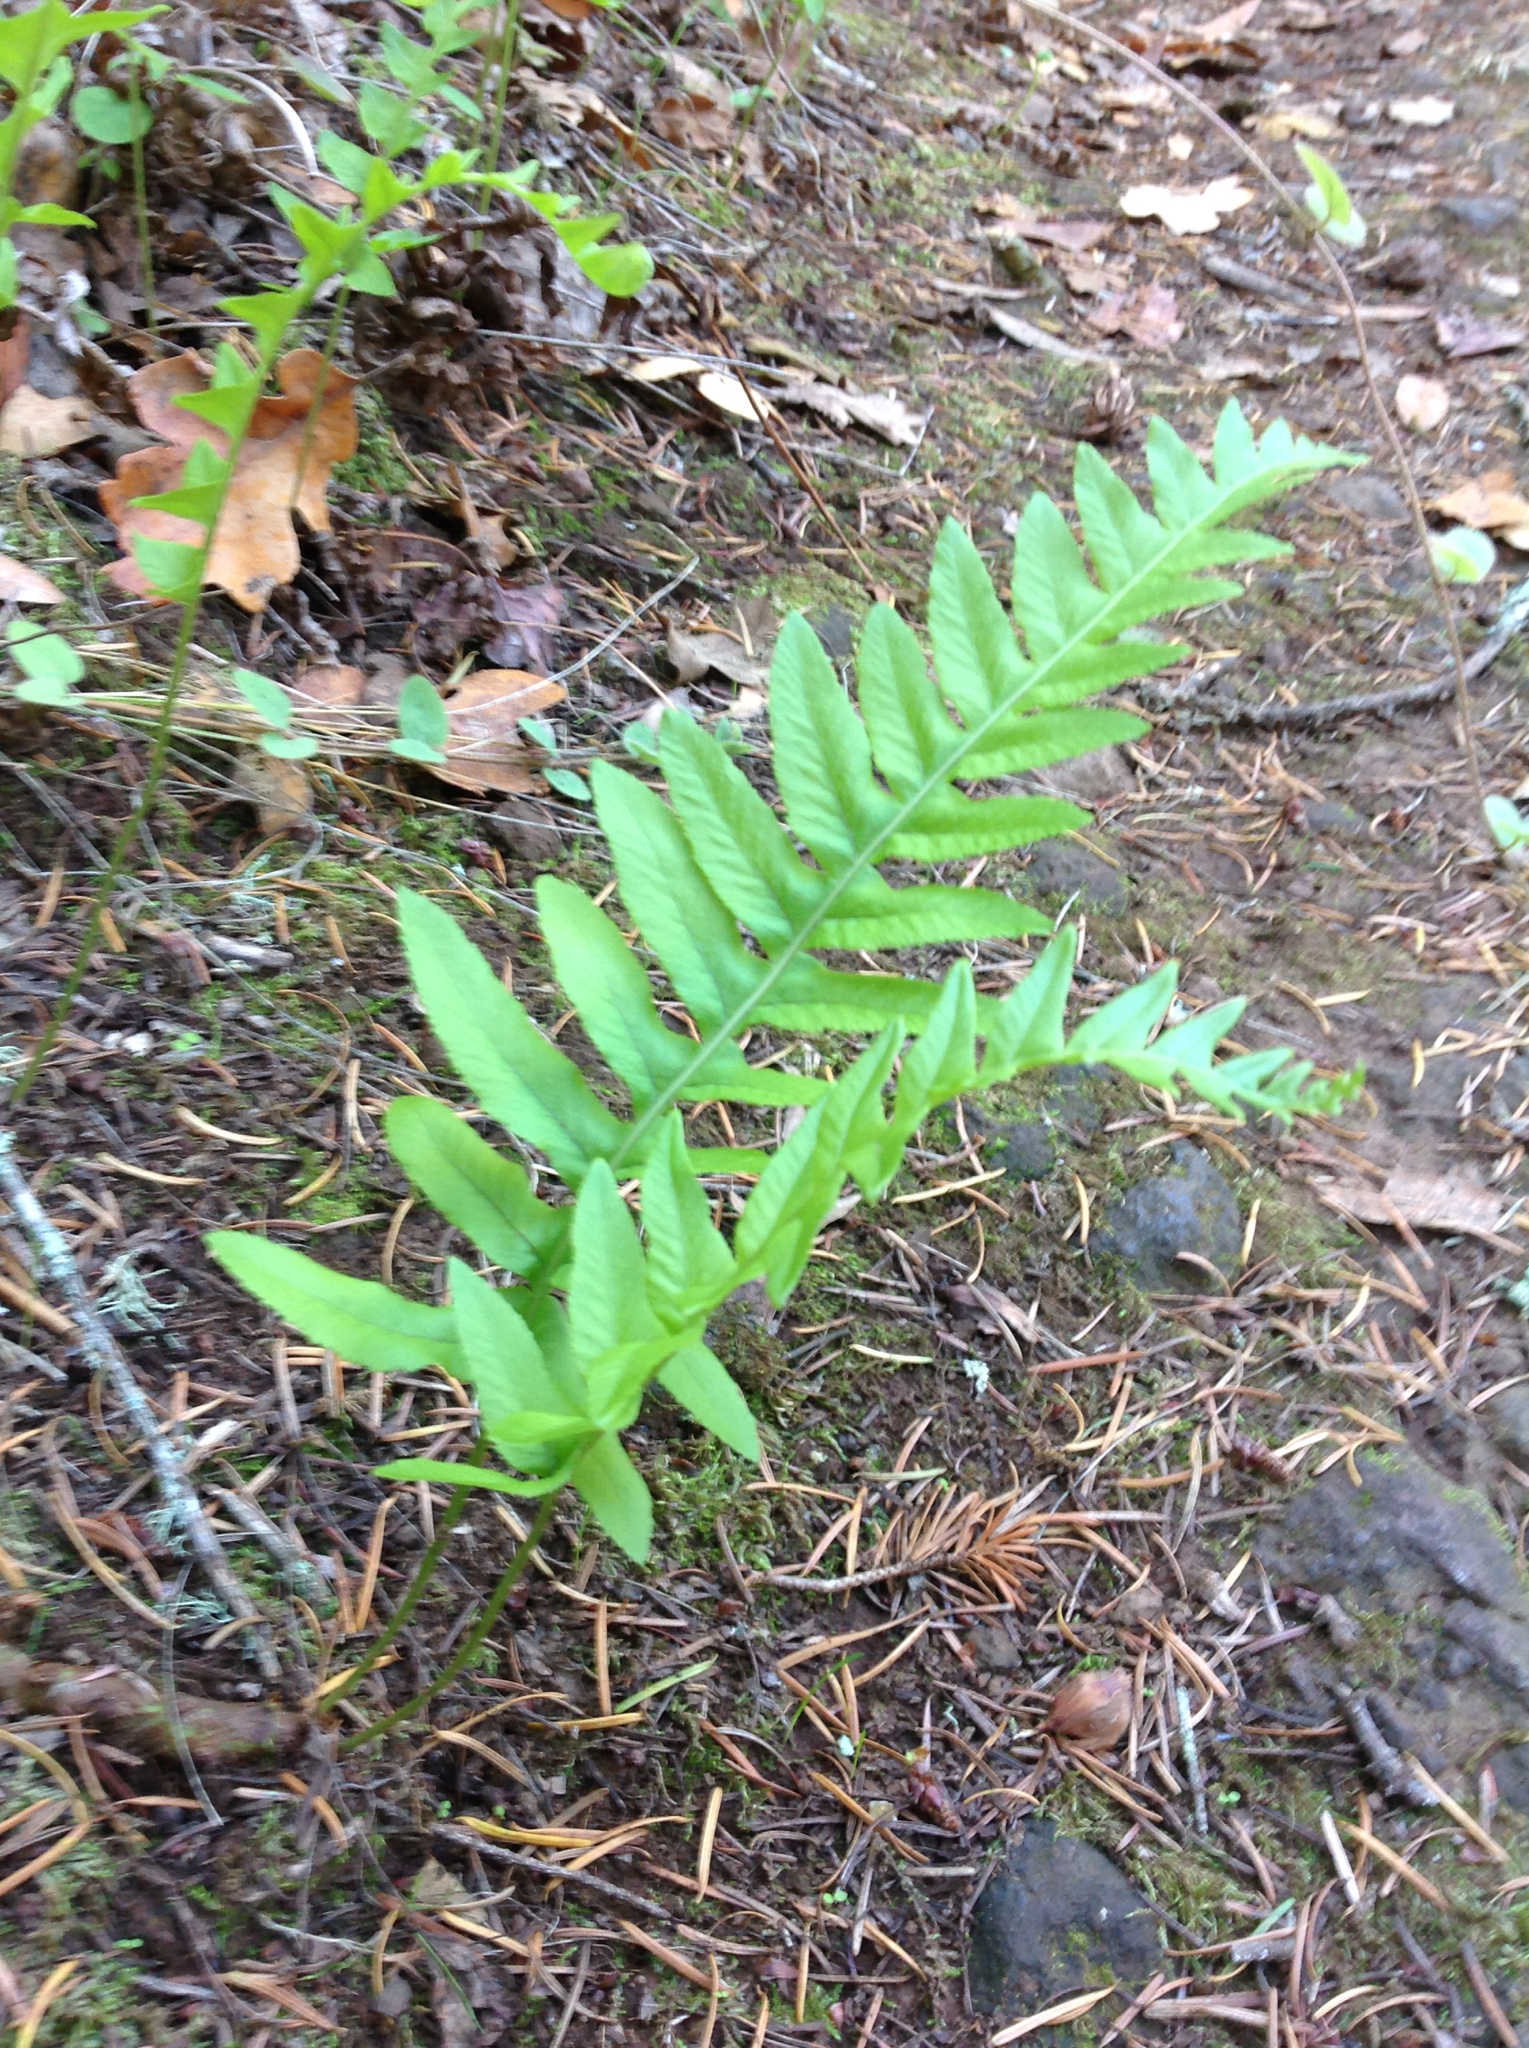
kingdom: Plantae
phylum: Tracheophyta
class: Polypodiopsida
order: Polypodiales
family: Polypodiaceae
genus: Polypodium
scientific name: Polypodium californicum
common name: California polypody
